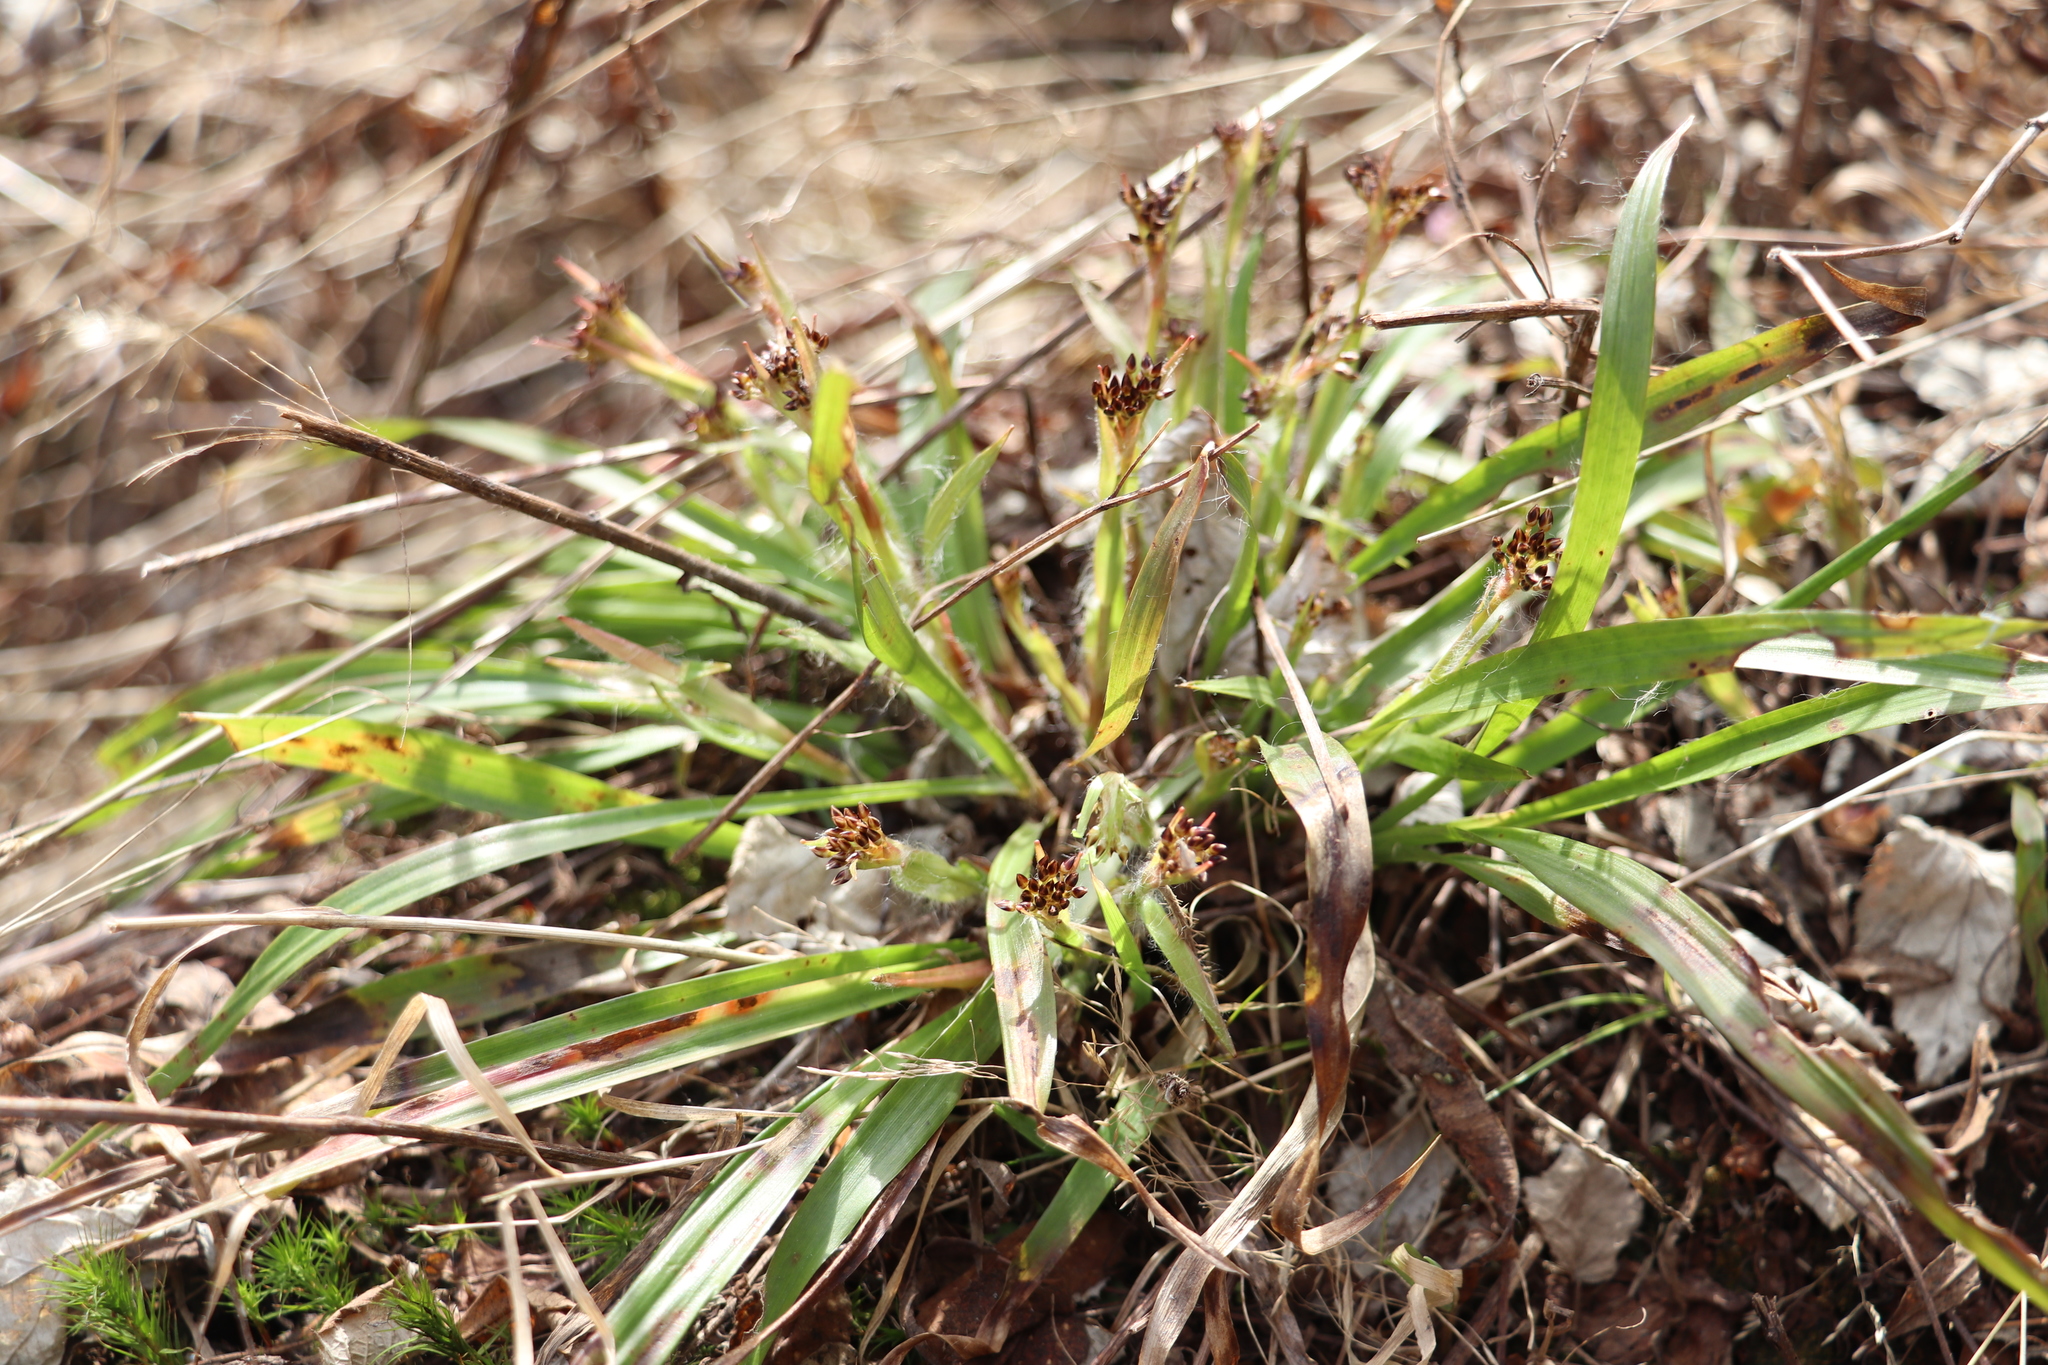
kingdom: Plantae
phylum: Tracheophyta
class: Liliopsida
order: Poales
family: Juncaceae
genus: Luzula
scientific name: Luzula pilosa
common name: Hairy wood-rush
